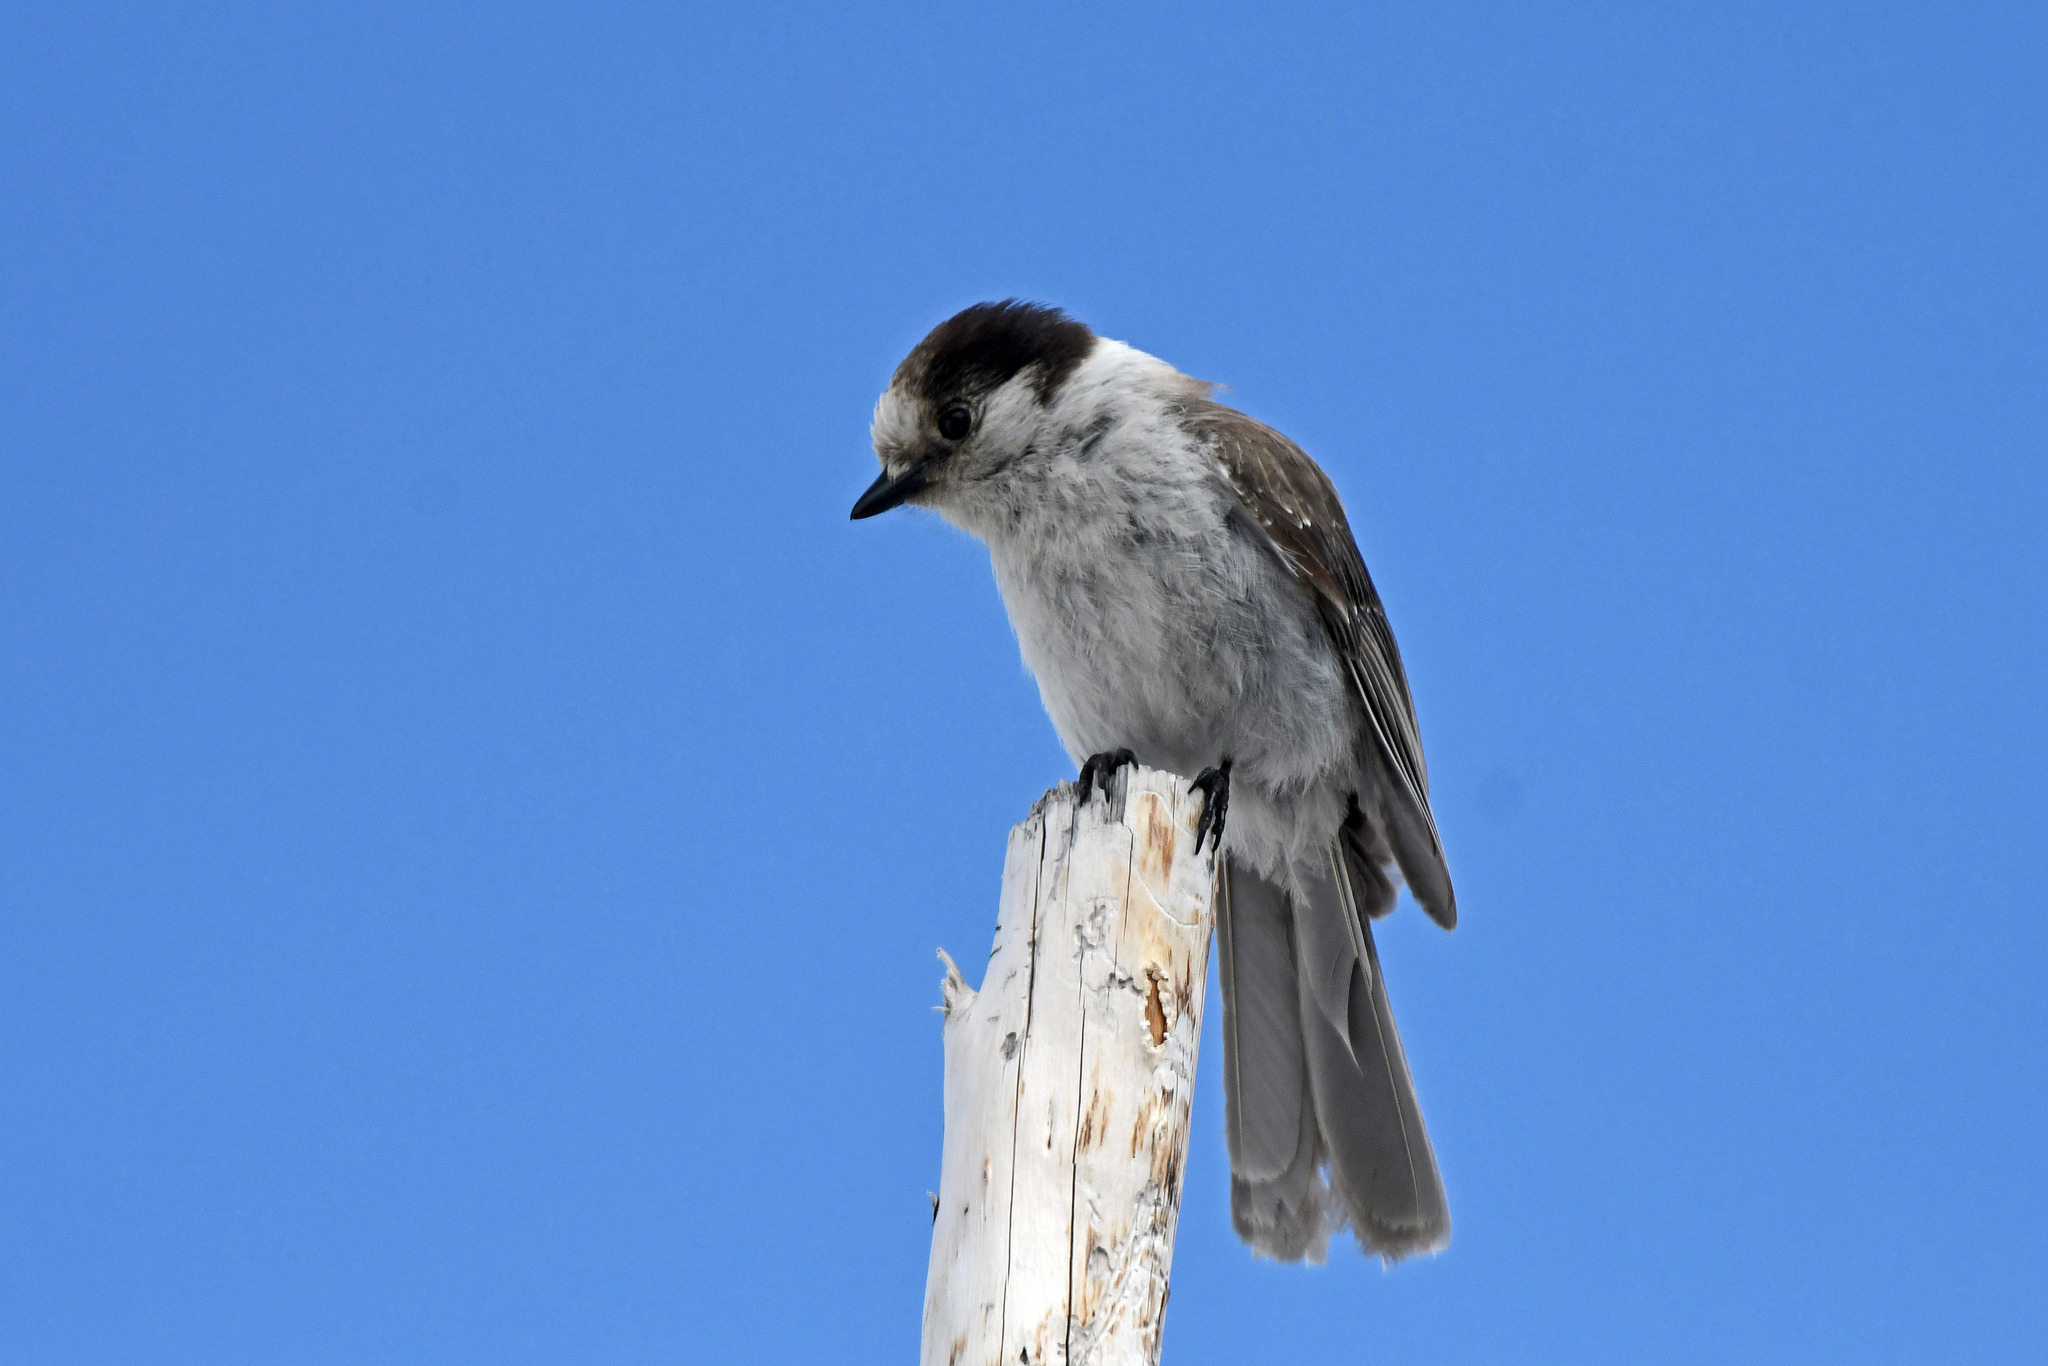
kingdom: Animalia
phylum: Chordata
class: Aves
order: Passeriformes
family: Corvidae
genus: Perisoreus
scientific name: Perisoreus canadensis
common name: Gray jay
